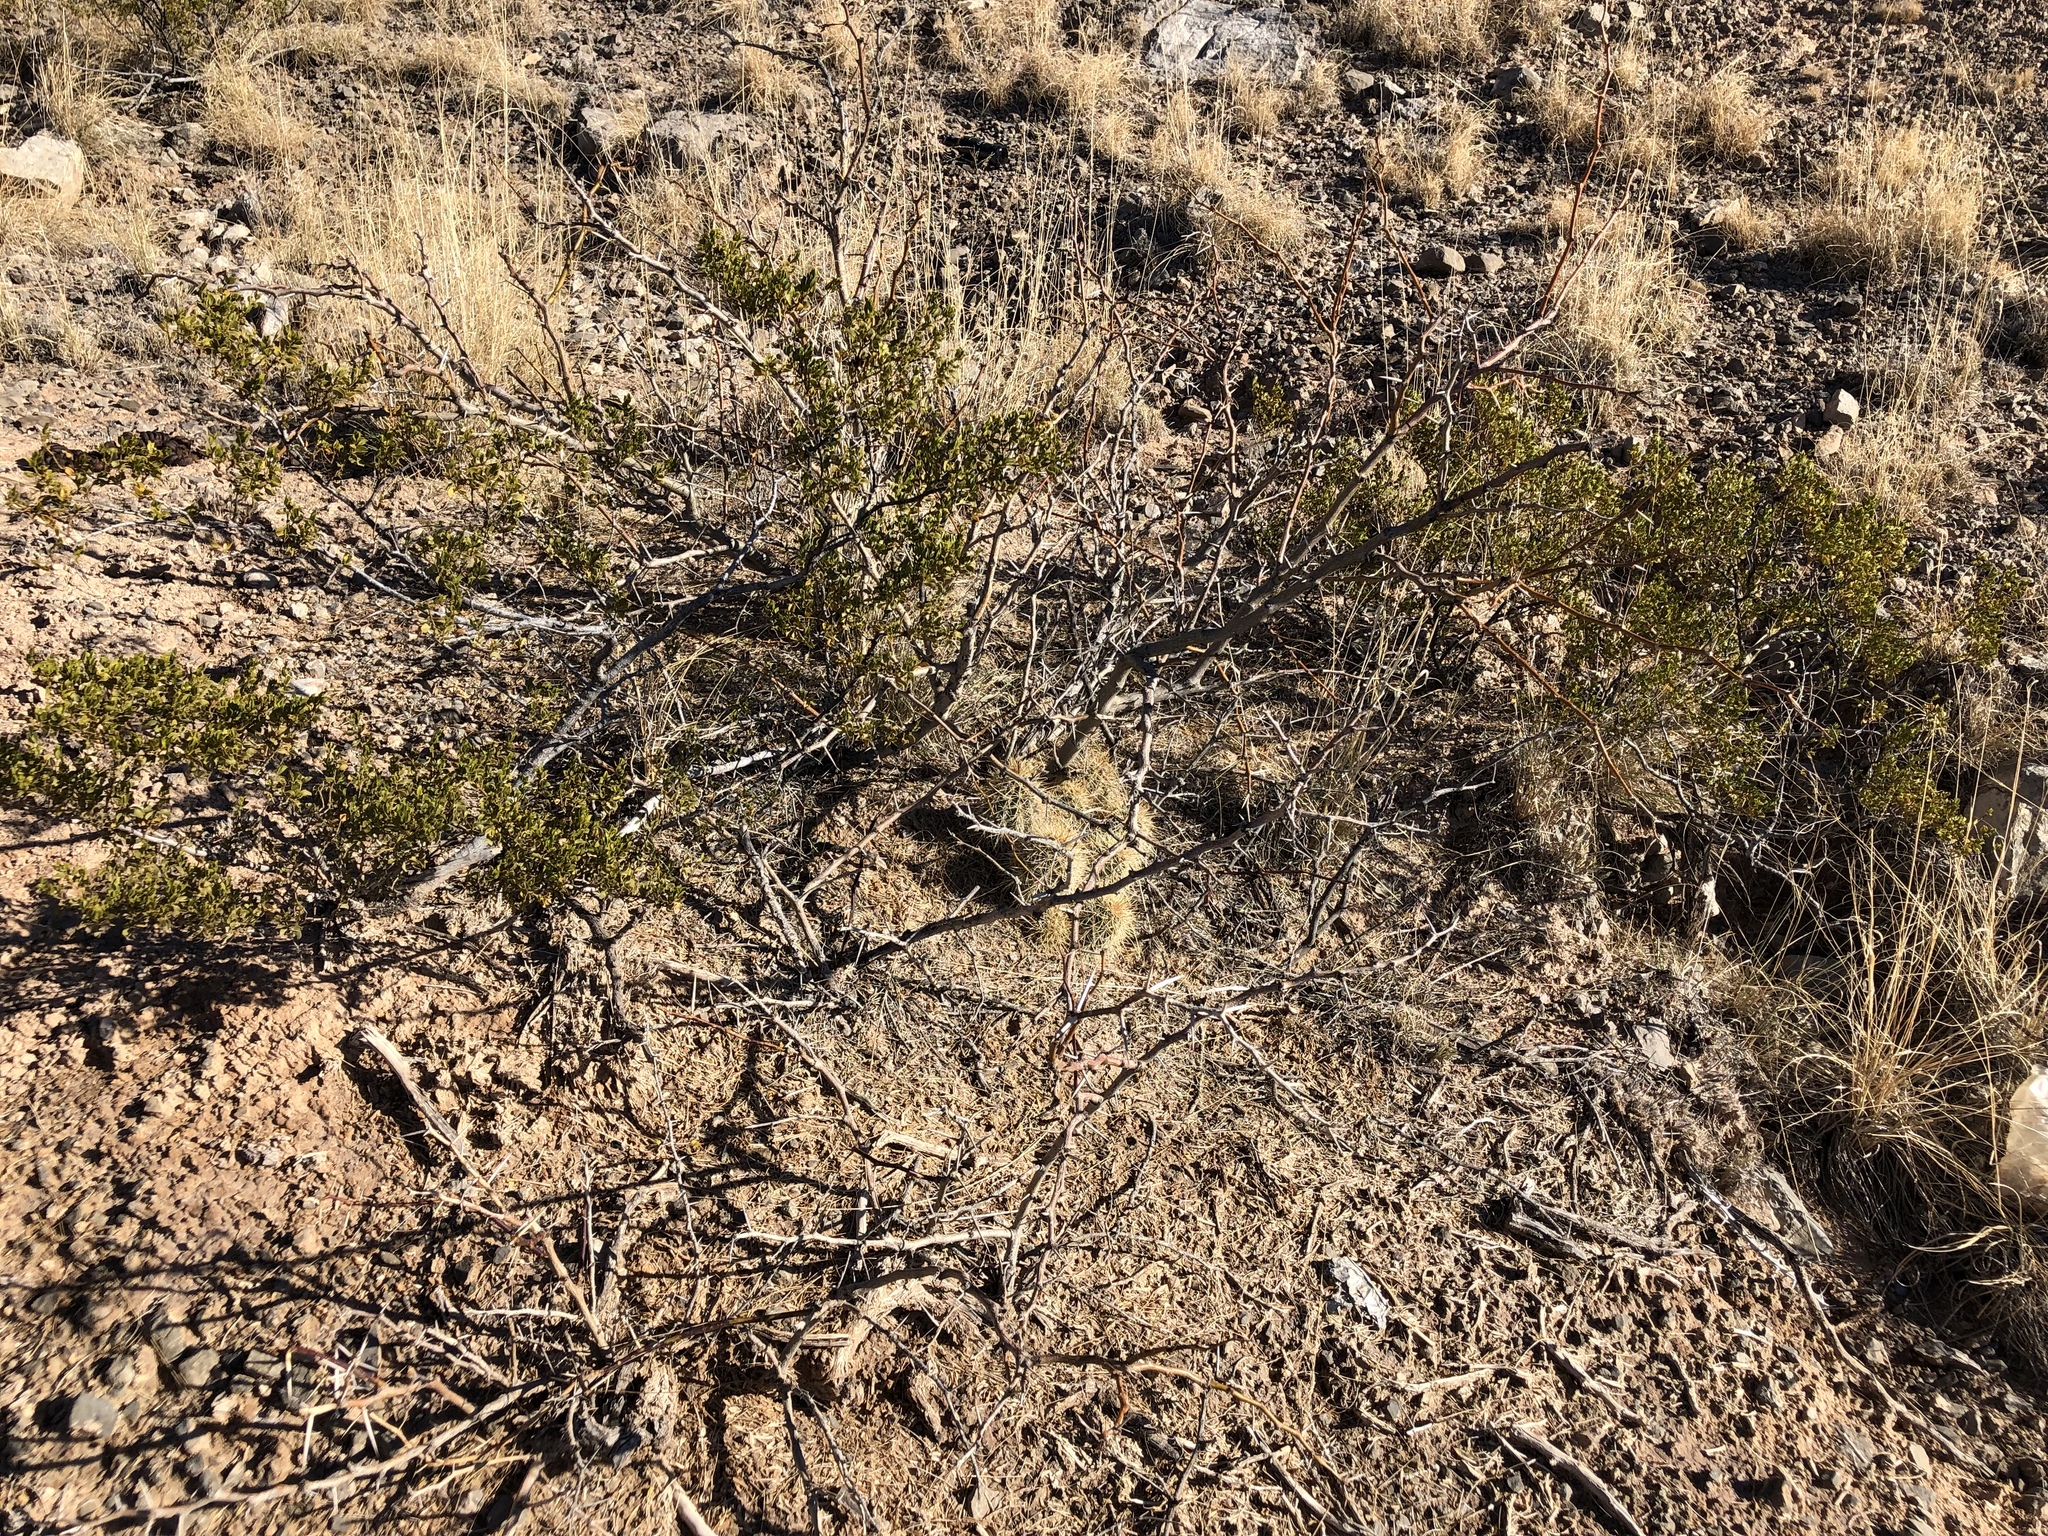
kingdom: Plantae
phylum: Tracheophyta
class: Magnoliopsida
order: Zygophyllales
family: Zygophyllaceae
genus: Larrea
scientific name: Larrea tridentata
